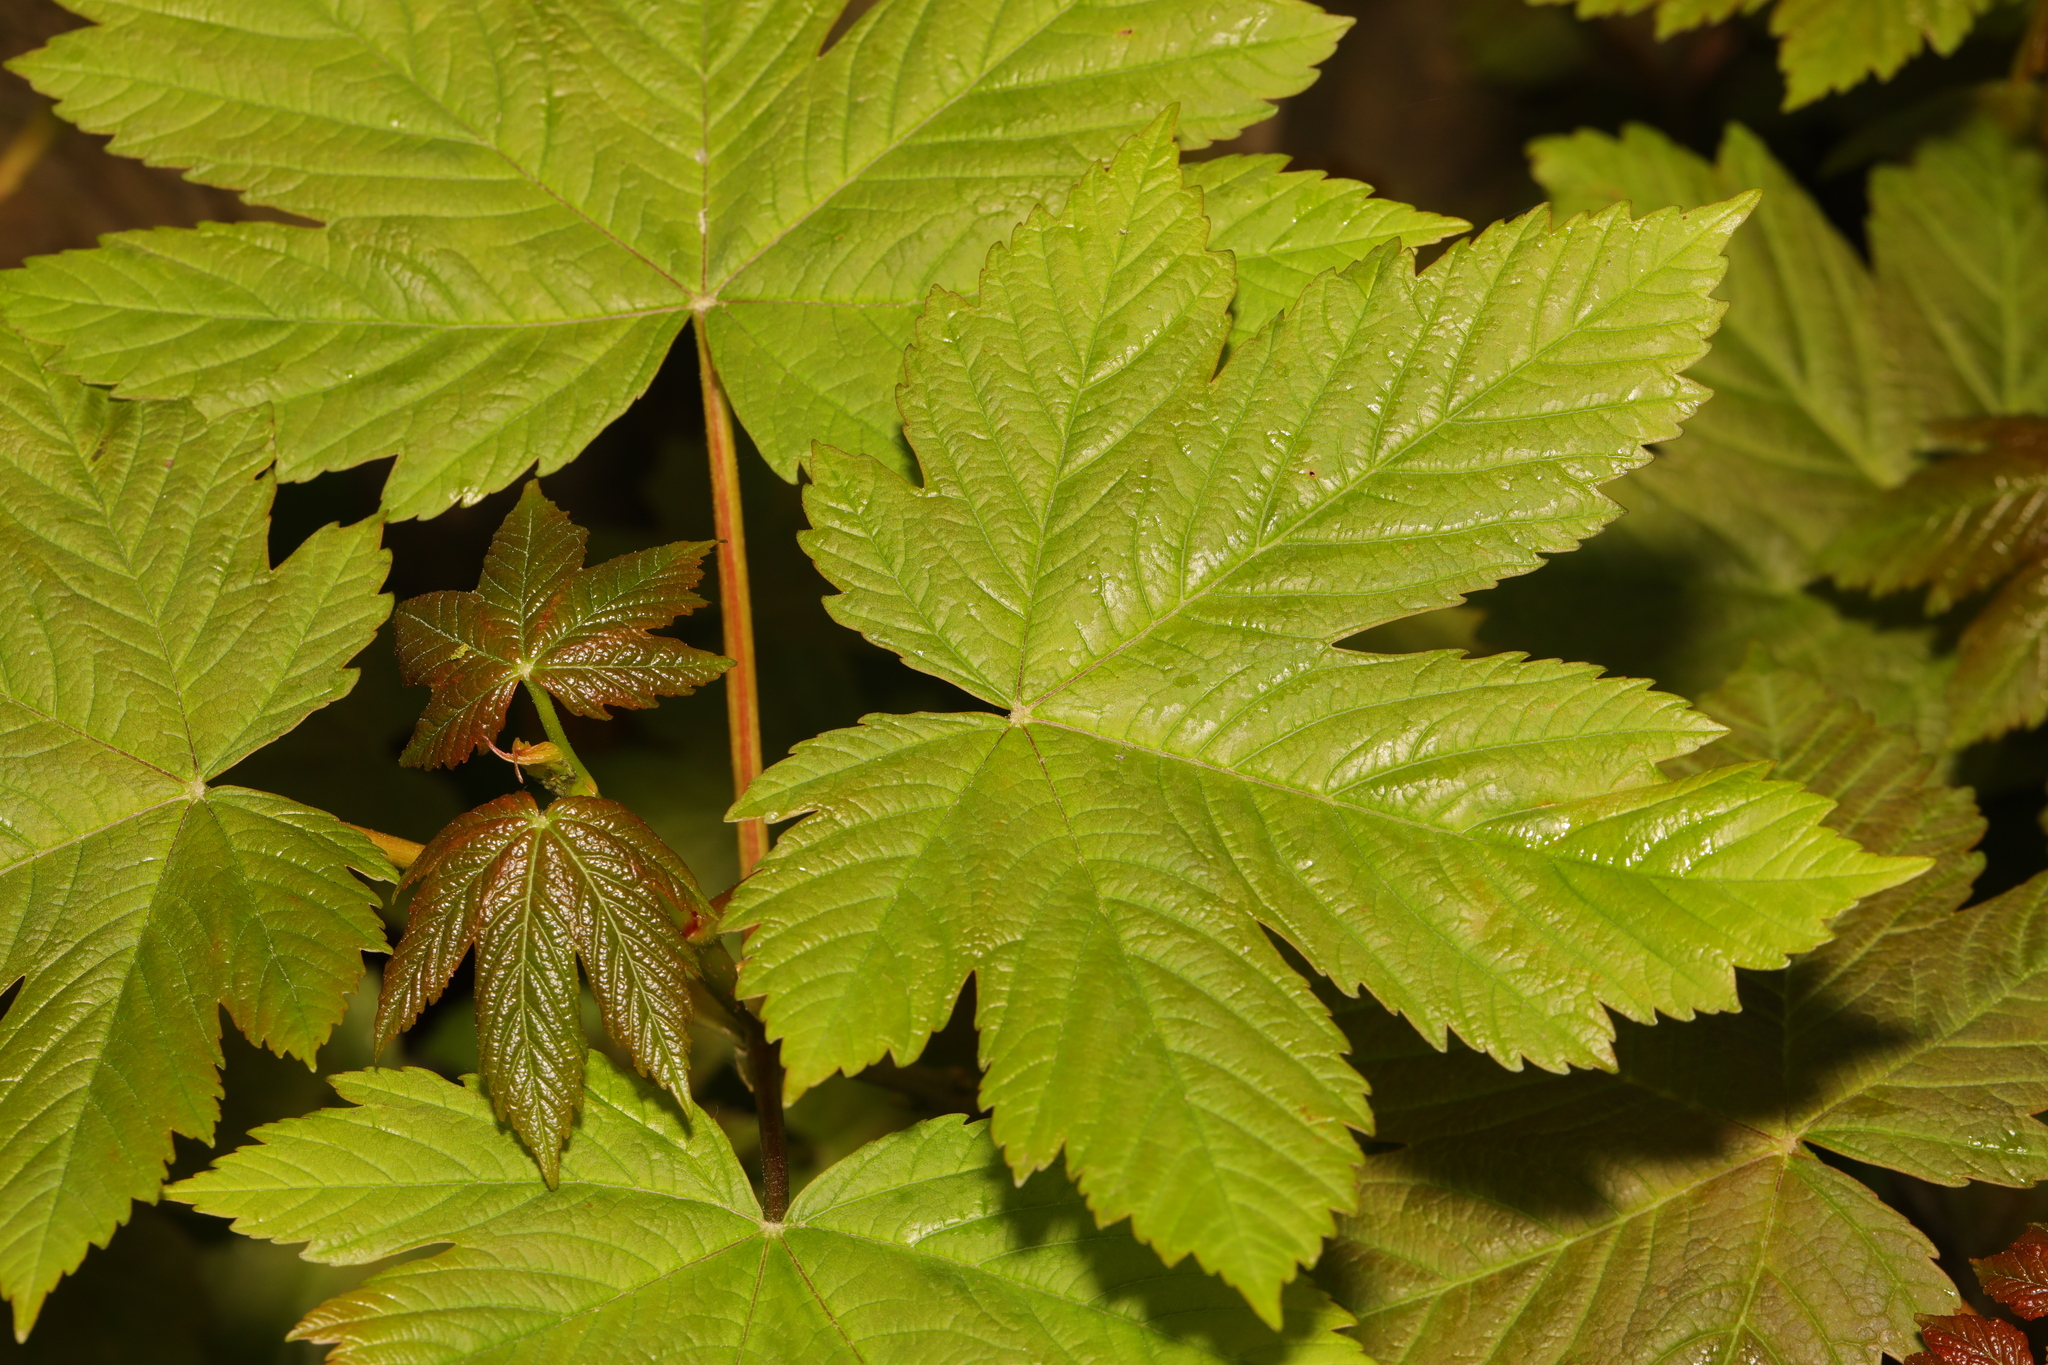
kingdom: Plantae
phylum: Tracheophyta
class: Magnoliopsida
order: Sapindales
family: Sapindaceae
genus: Acer
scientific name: Acer pseudoplatanus
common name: Sycamore
